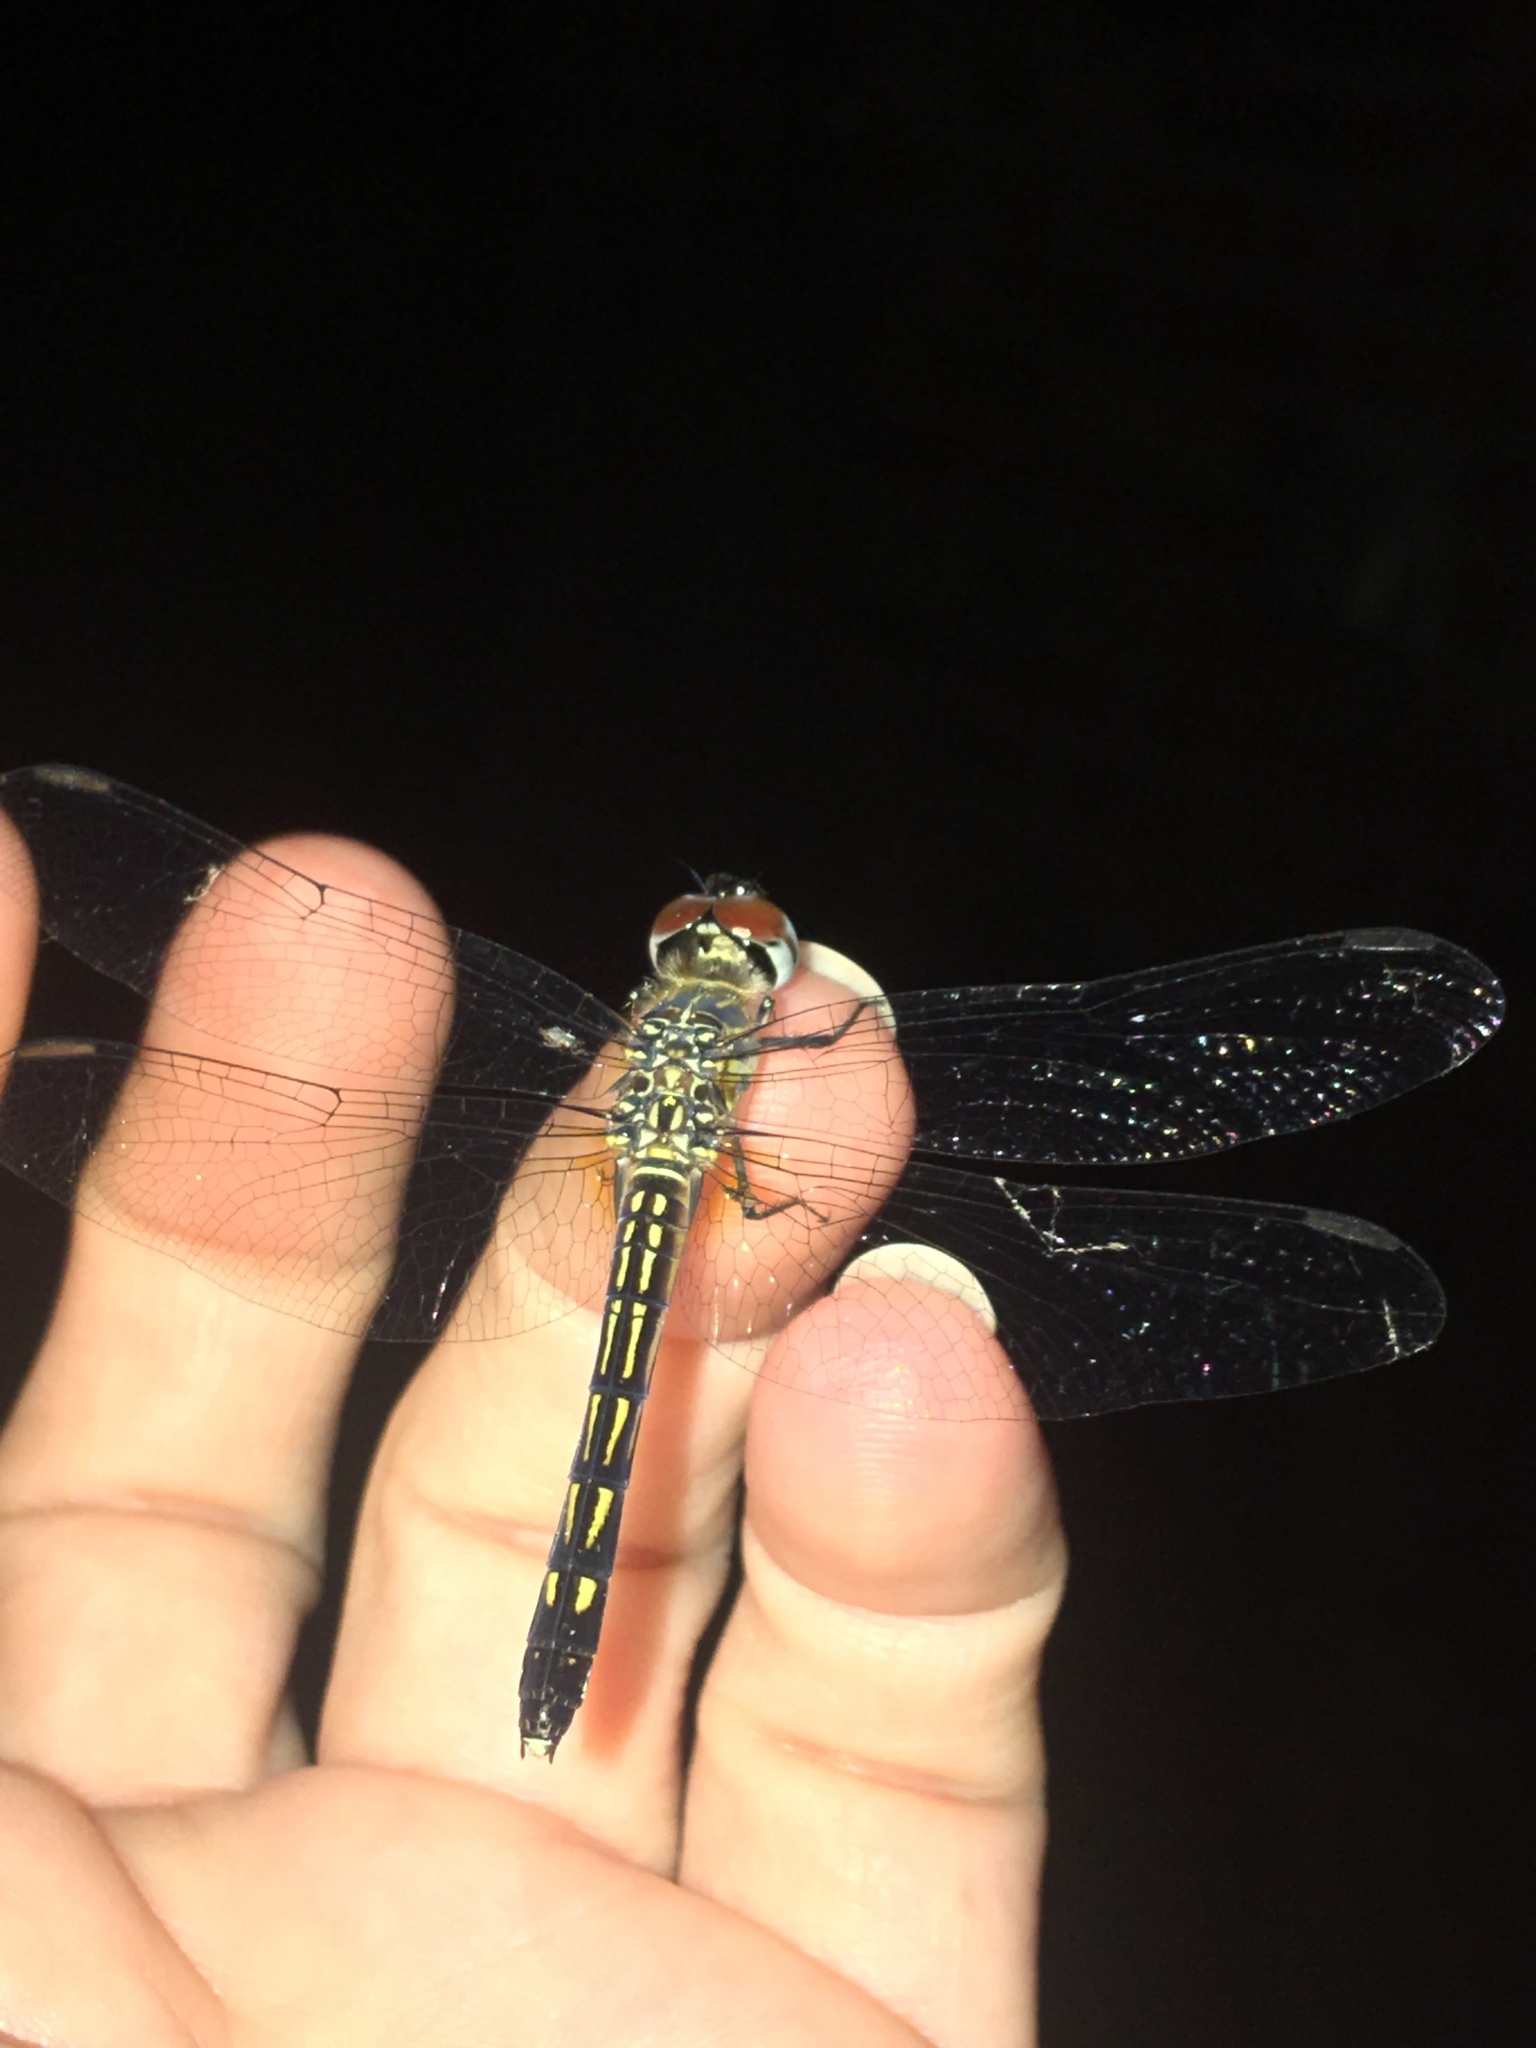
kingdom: Animalia
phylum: Arthropoda
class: Insecta
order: Odonata
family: Libellulidae
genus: Pachydiplax
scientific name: Pachydiplax longipennis
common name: Blue dasher
